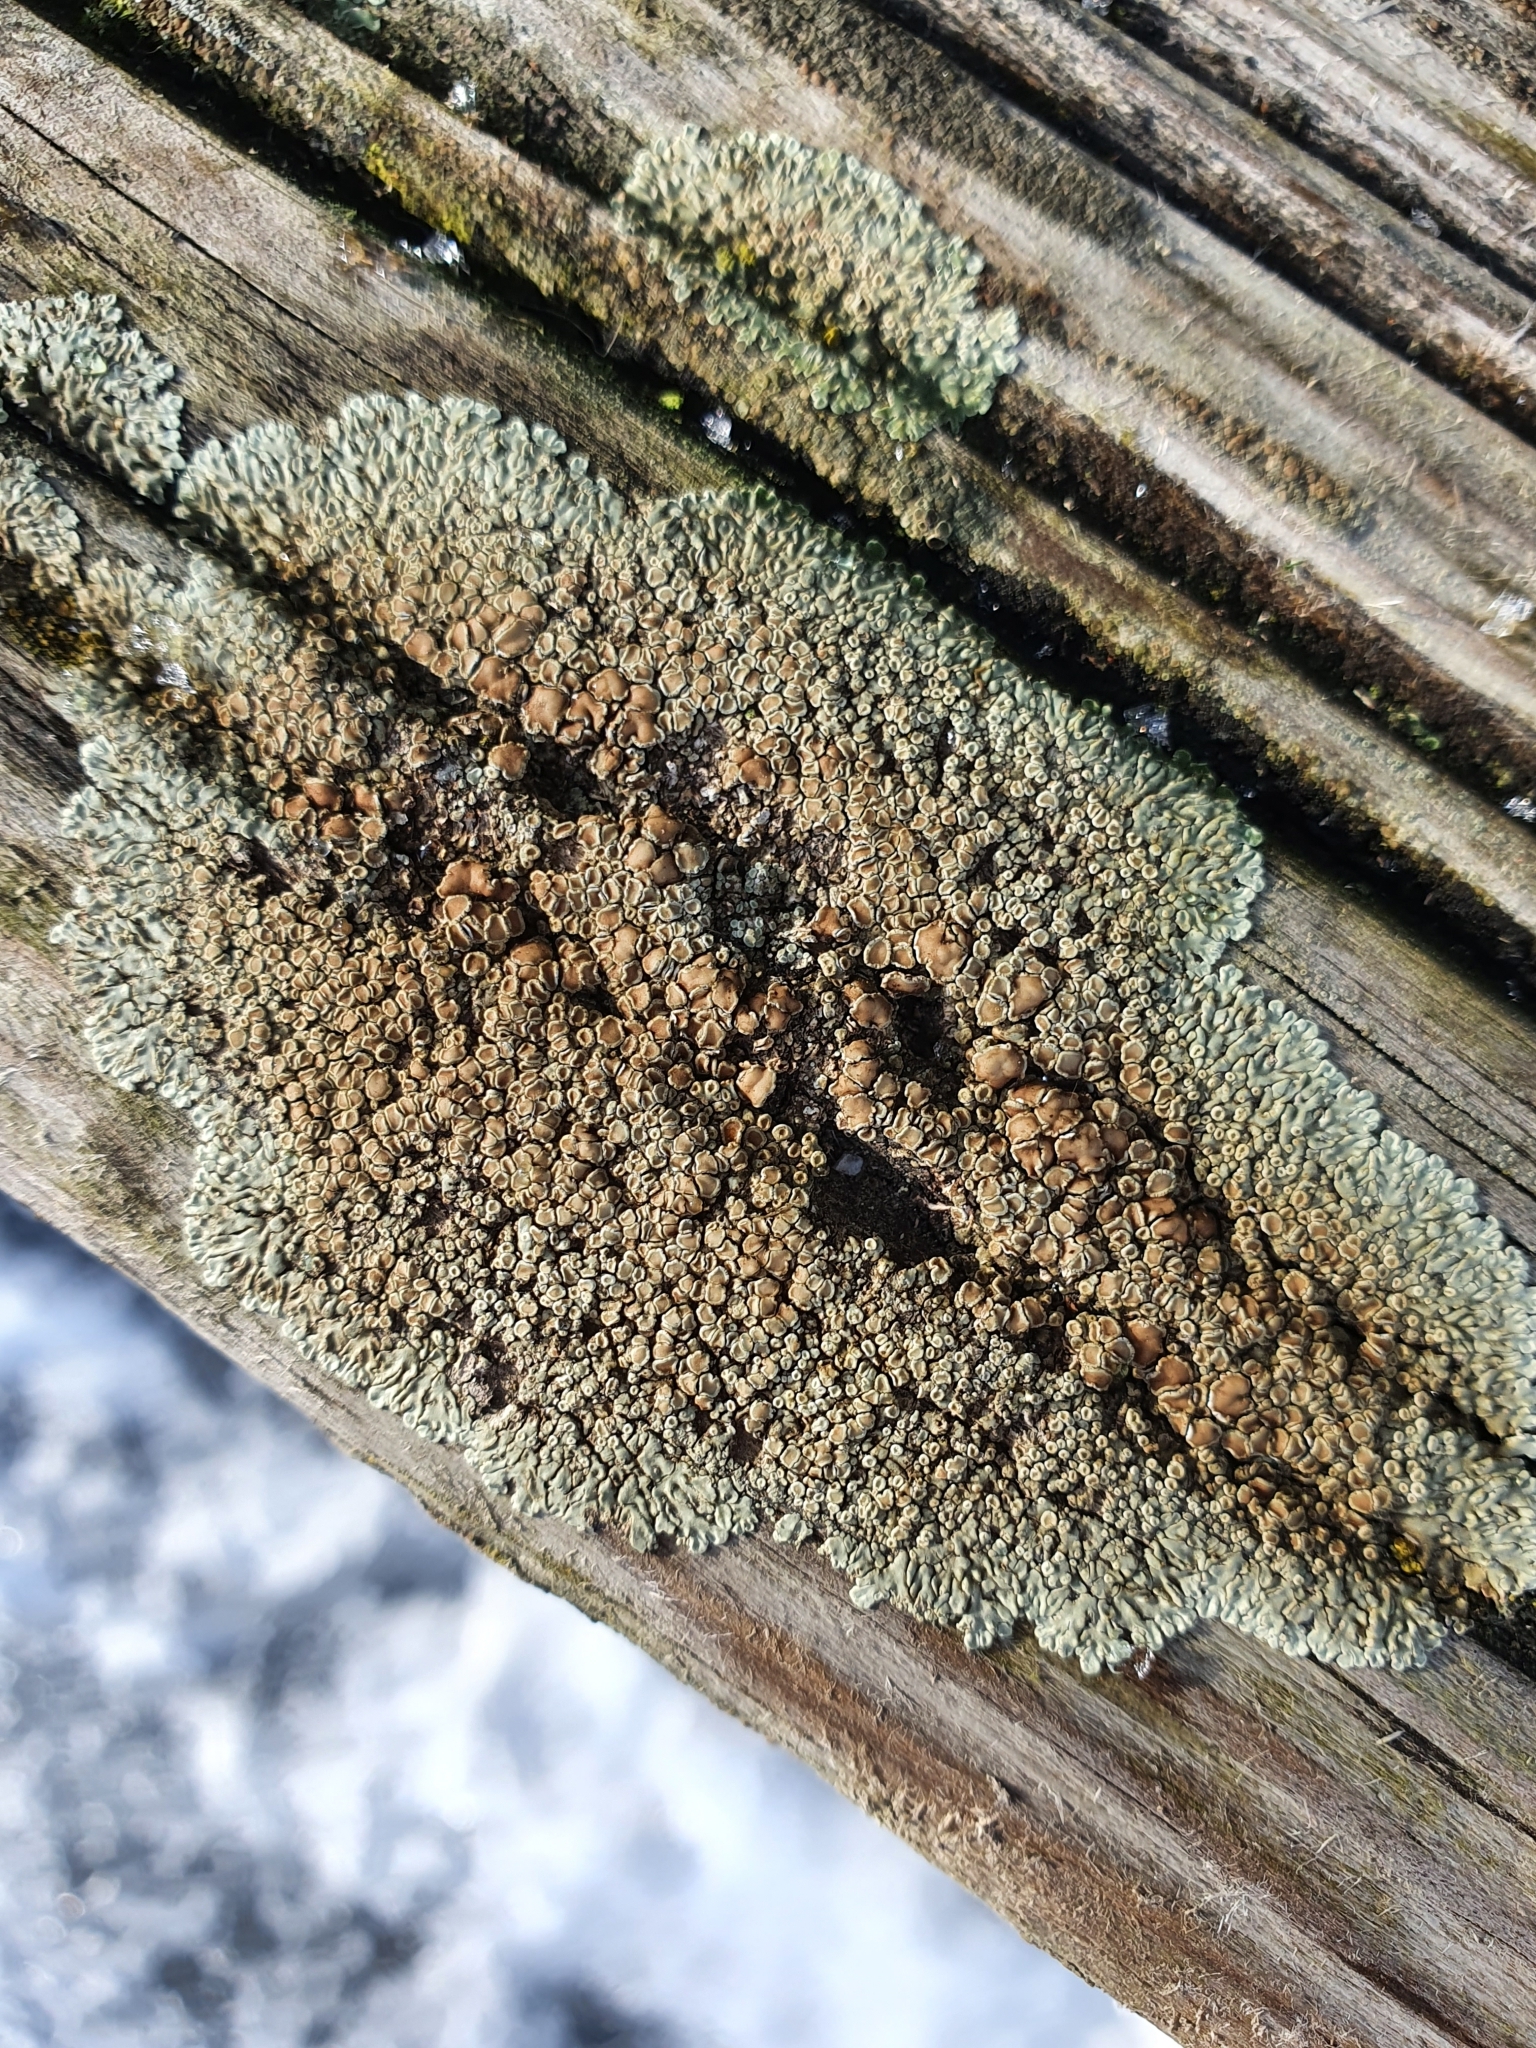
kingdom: Fungi
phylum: Ascomycota
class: Lecanoromycetes
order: Lecanorales
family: Lecanoraceae
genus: Protoparmeliopsis
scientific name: Protoparmeliopsis muralis
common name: Stonewall rim lichen
